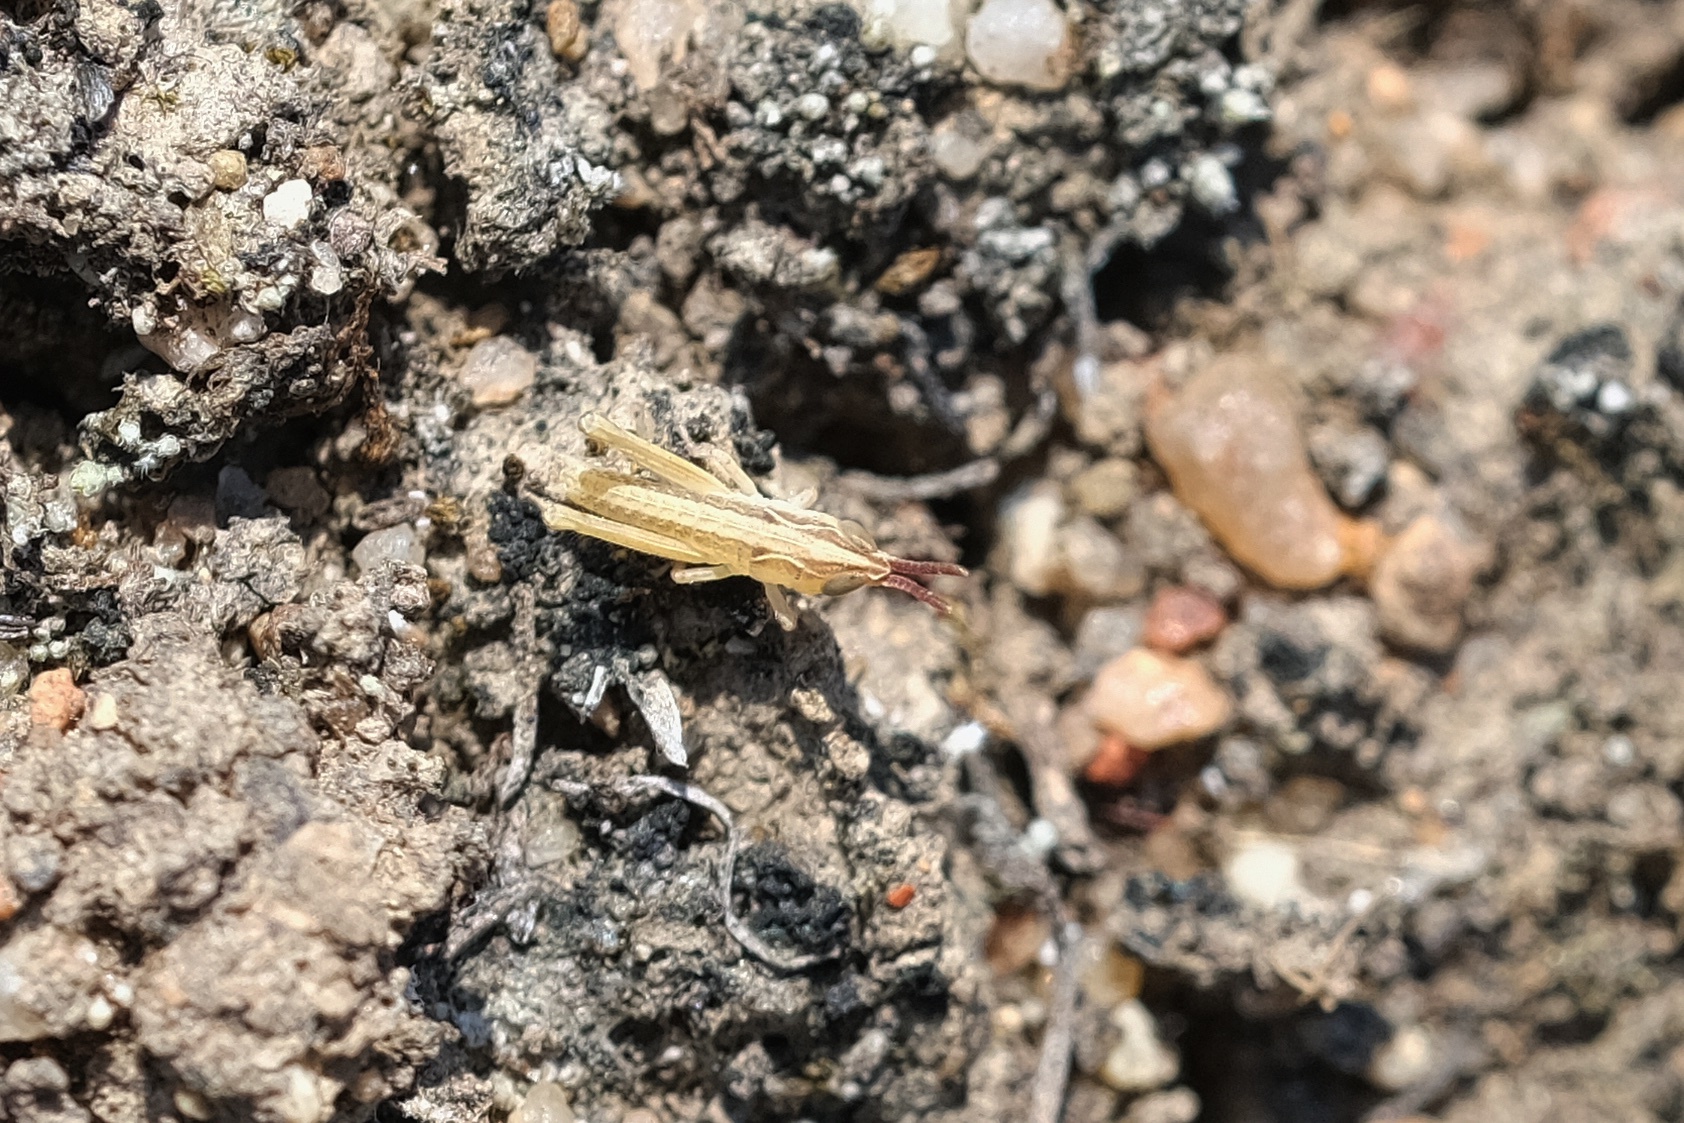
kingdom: Animalia
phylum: Arthropoda
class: Insecta
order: Orthoptera
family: Acrididae
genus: Psoloessa
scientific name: Psoloessa texana
